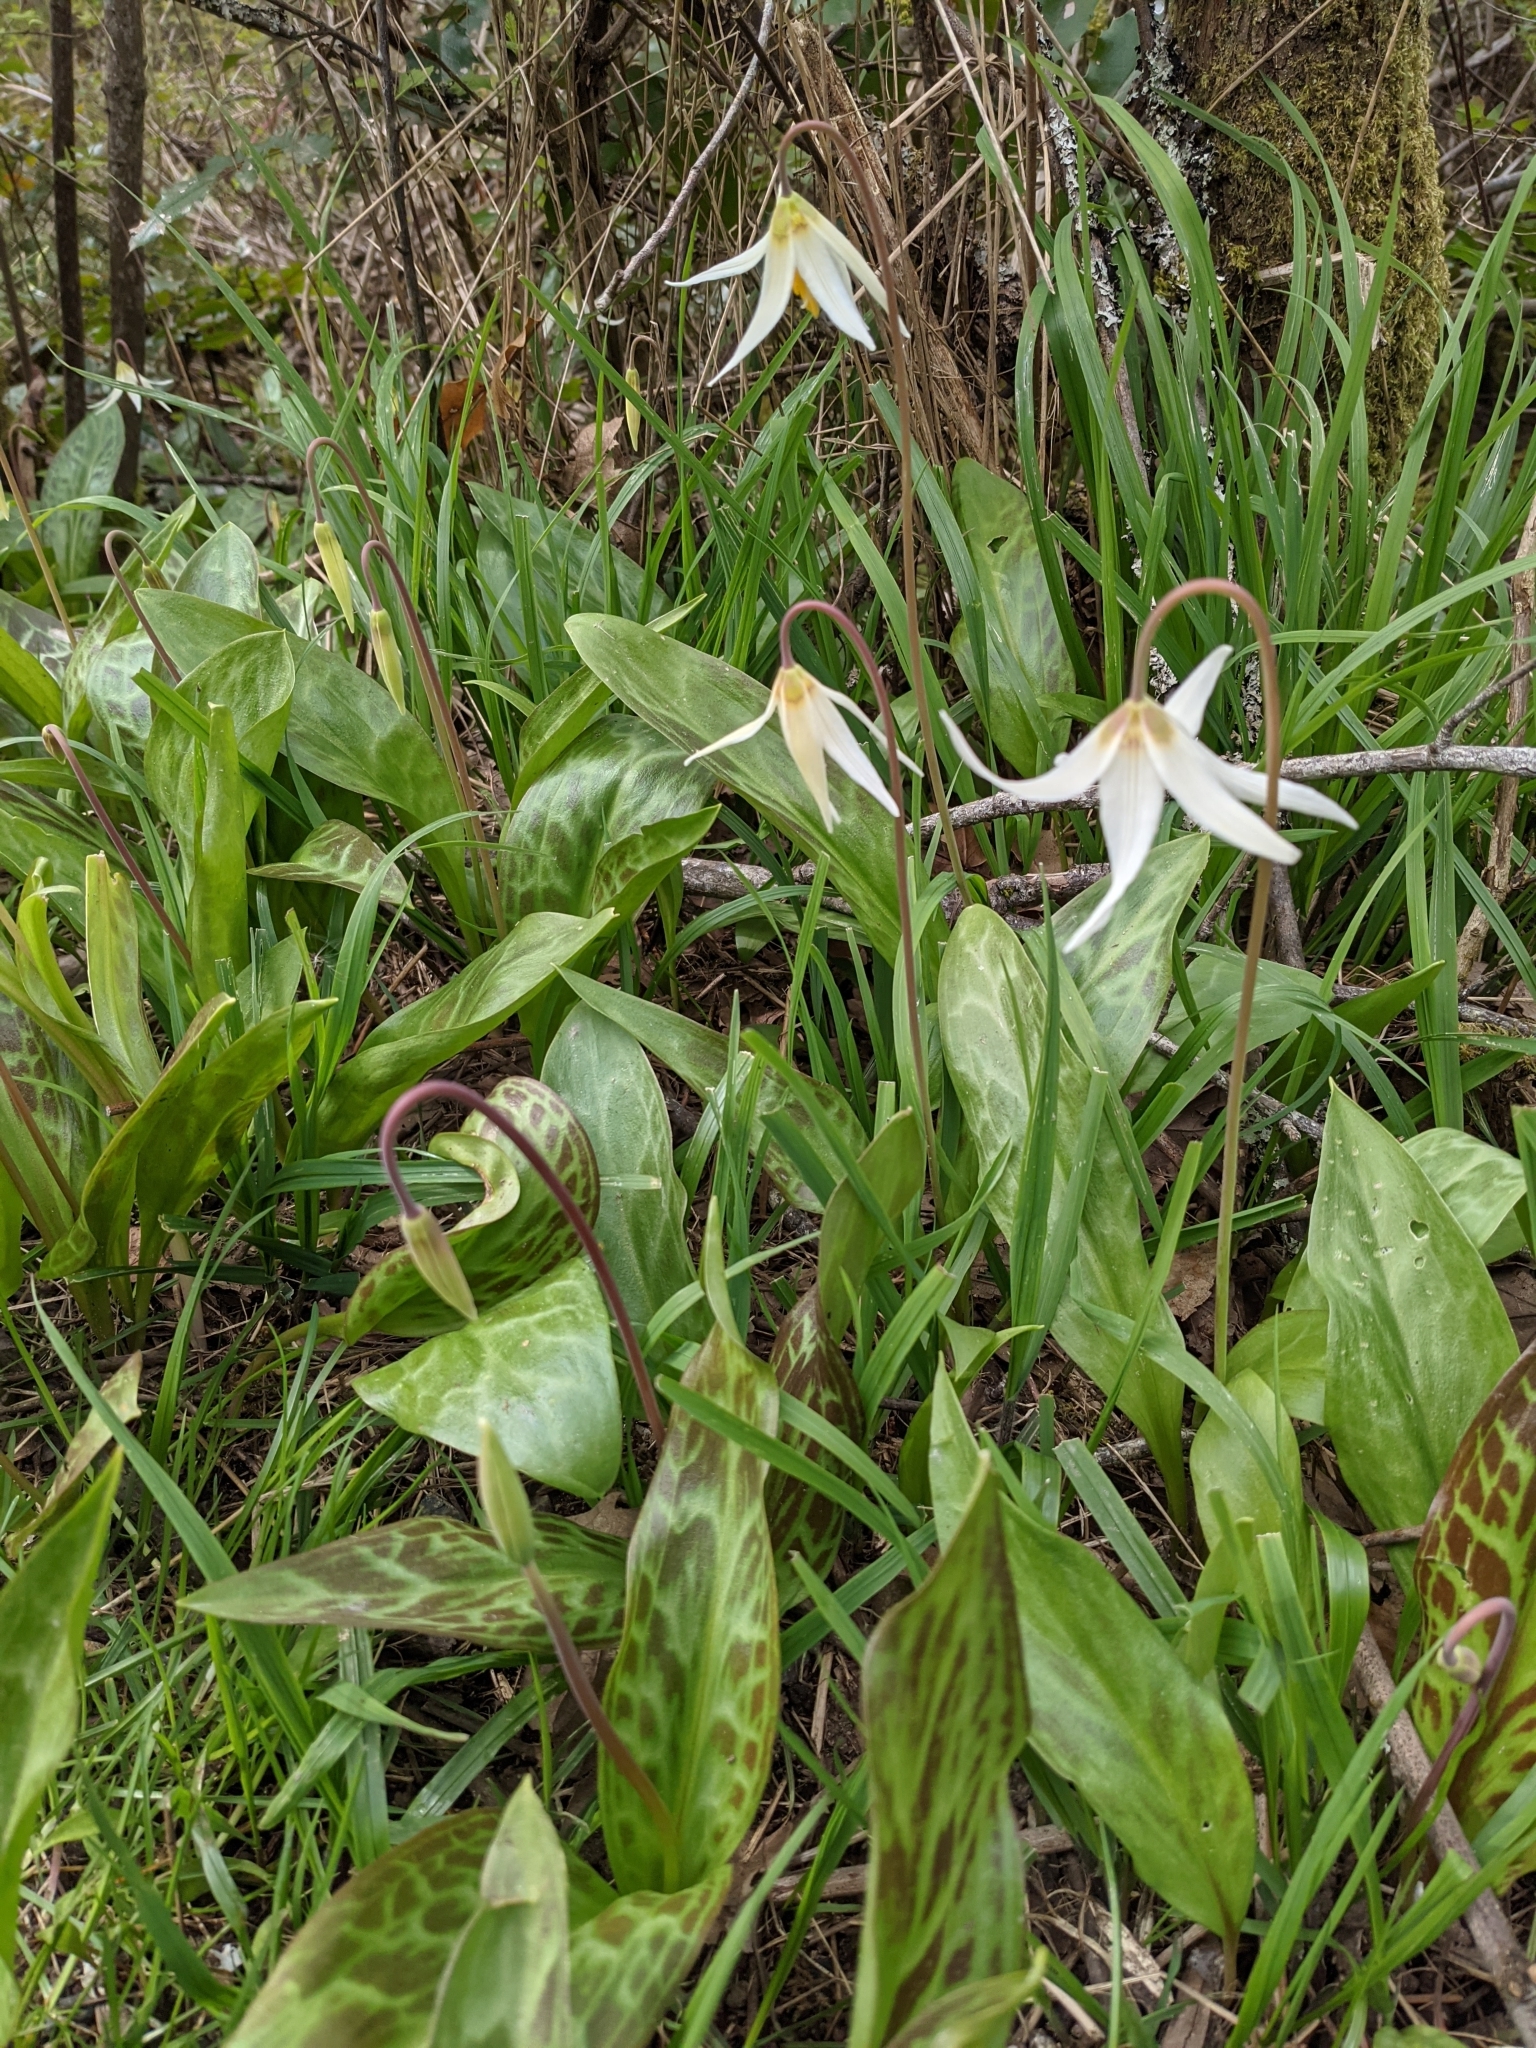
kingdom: Plantae
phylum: Tracheophyta
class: Liliopsida
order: Liliales
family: Liliaceae
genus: Erythronium
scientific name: Erythronium oregonum
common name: Giant adder's-tongue
